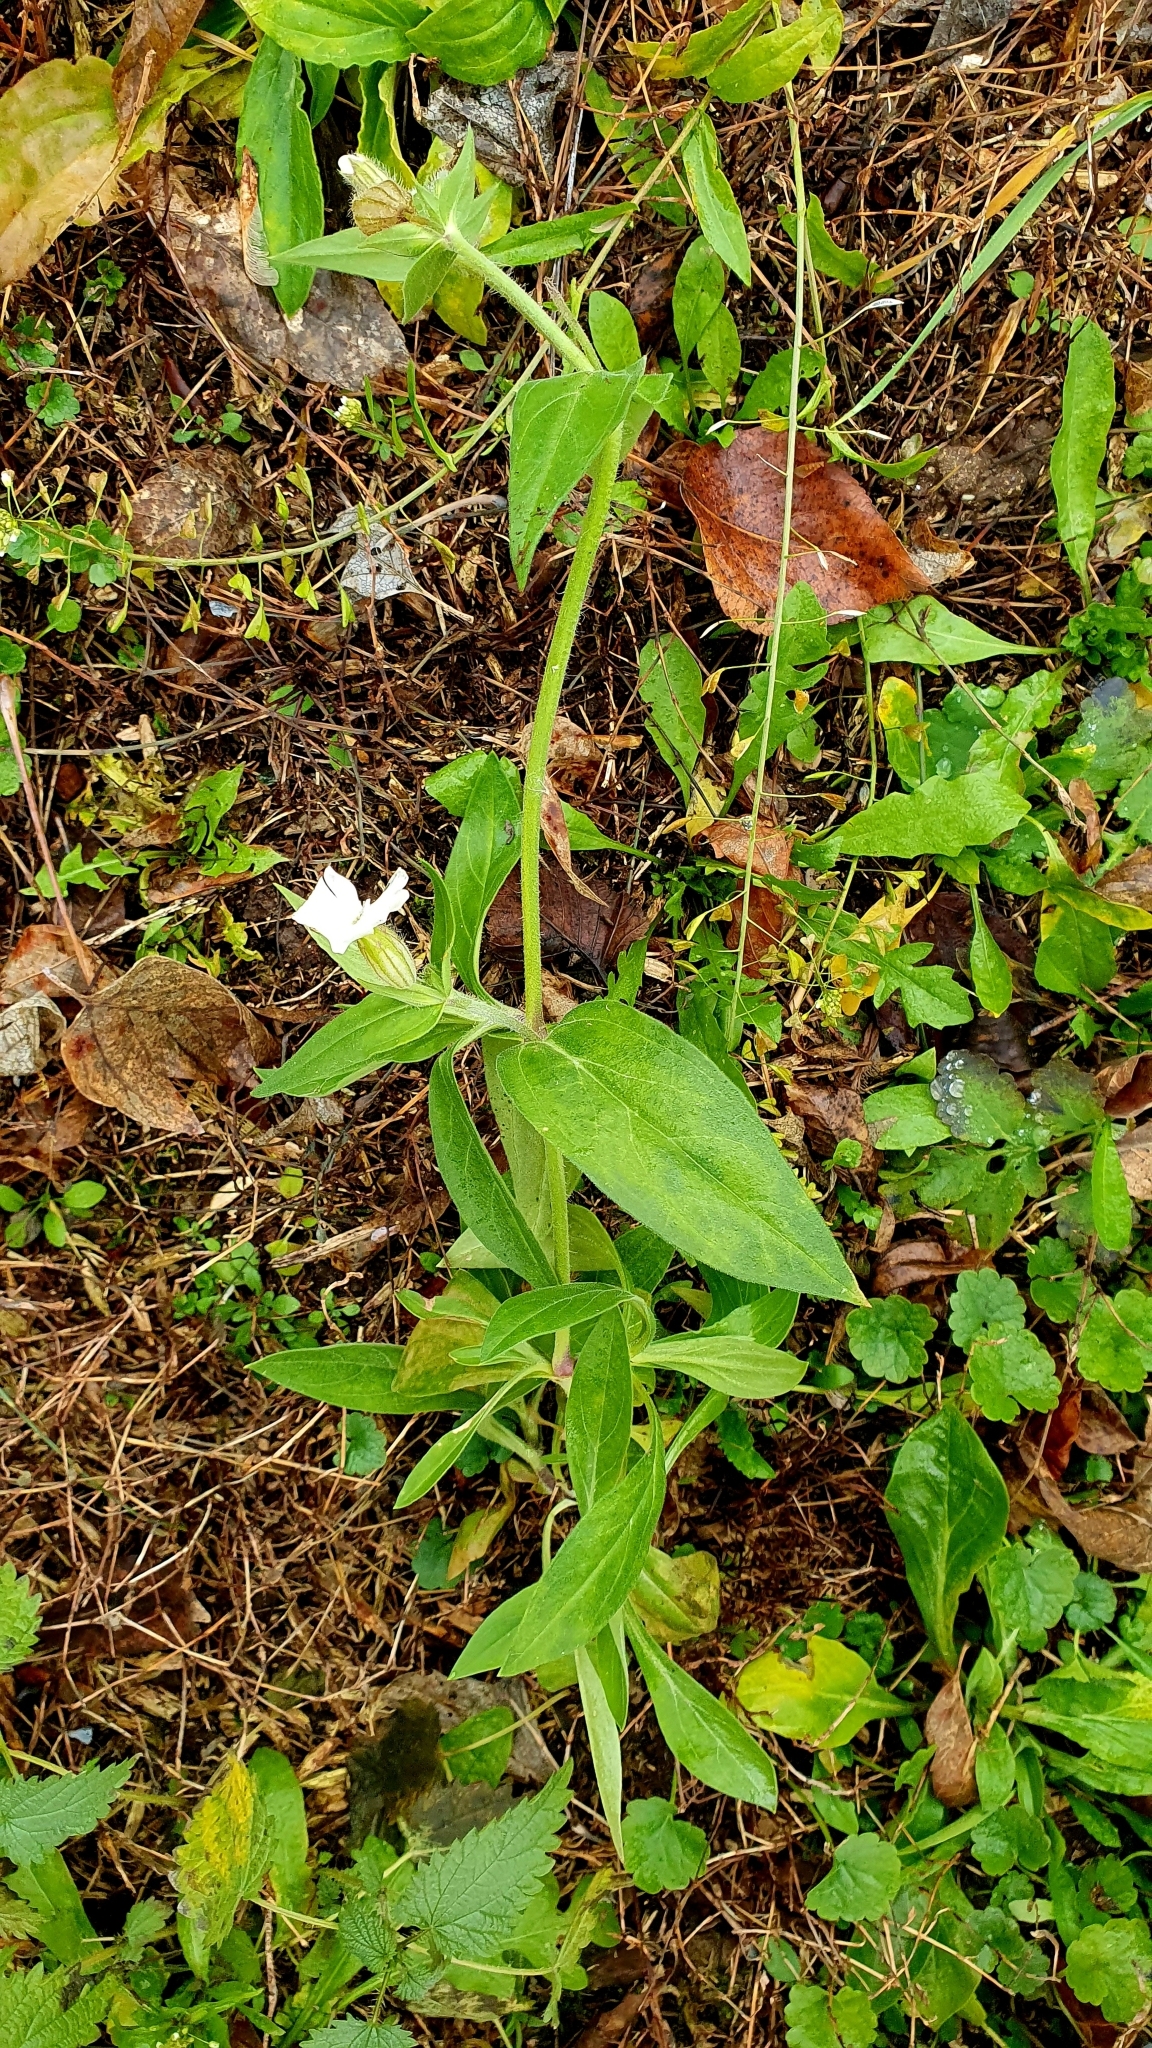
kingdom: Plantae
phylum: Tracheophyta
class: Magnoliopsida
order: Caryophyllales
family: Caryophyllaceae
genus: Silene
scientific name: Silene latifolia
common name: White campion
